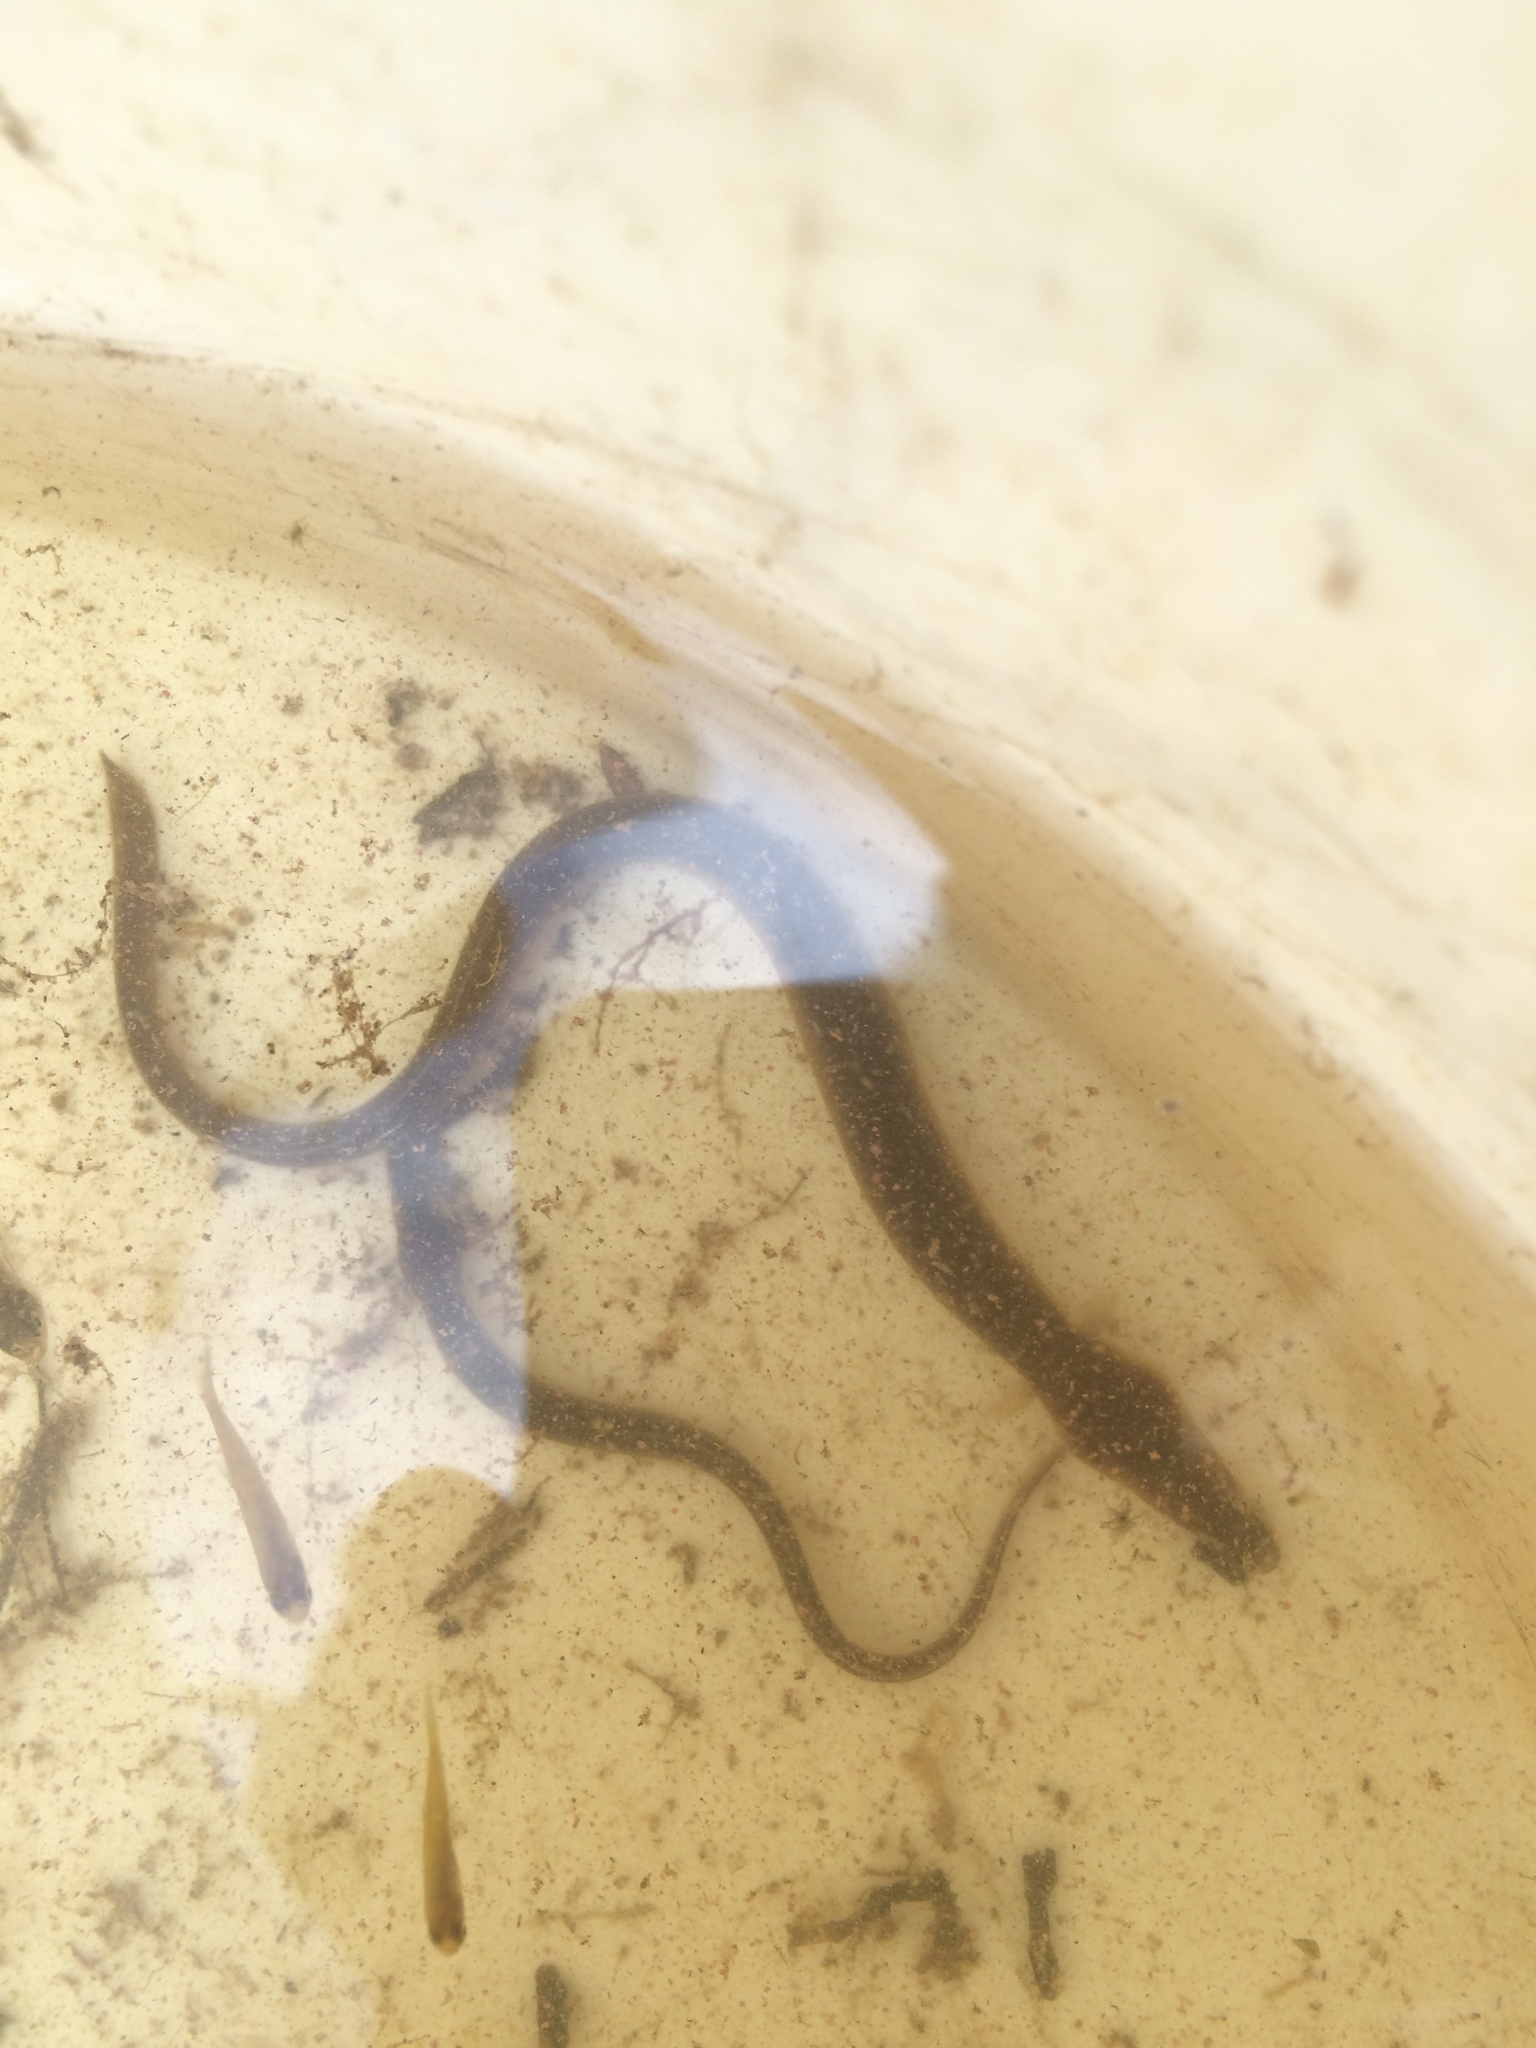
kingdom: Animalia
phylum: Chordata
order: Anguilliformes
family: Anguillidae
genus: Anguilla
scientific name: Anguilla rostrata
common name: American eel
